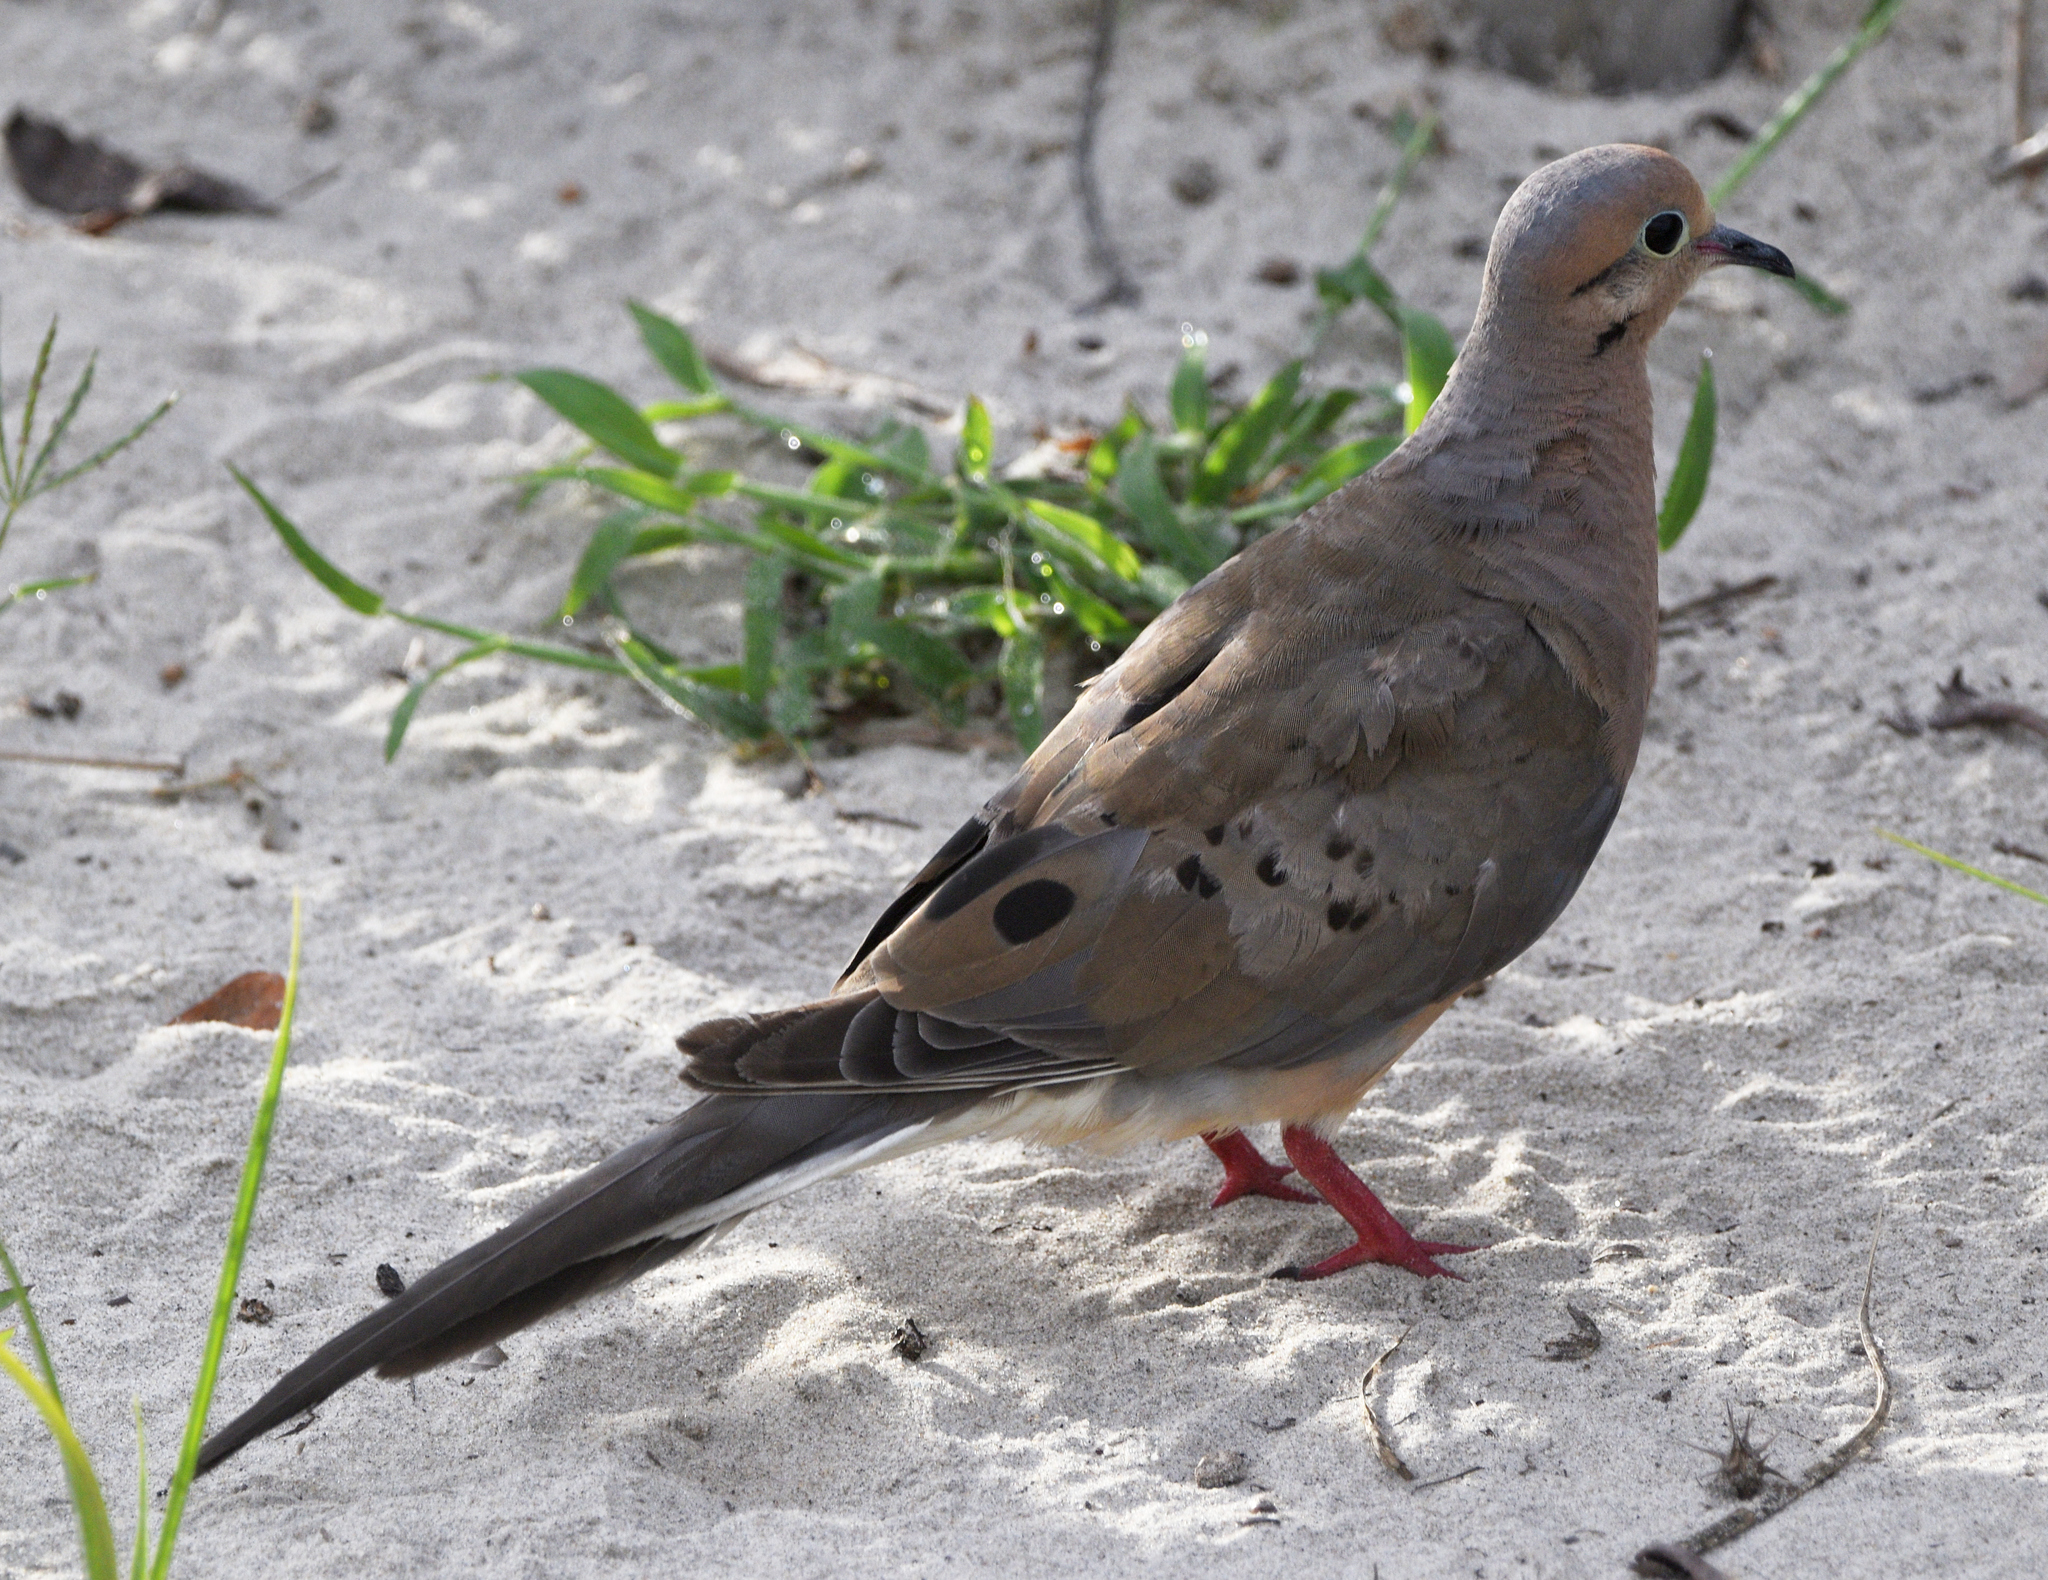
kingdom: Animalia
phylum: Chordata
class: Aves
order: Columbiformes
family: Columbidae
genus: Zenaida
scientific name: Zenaida macroura
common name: Mourning dove
